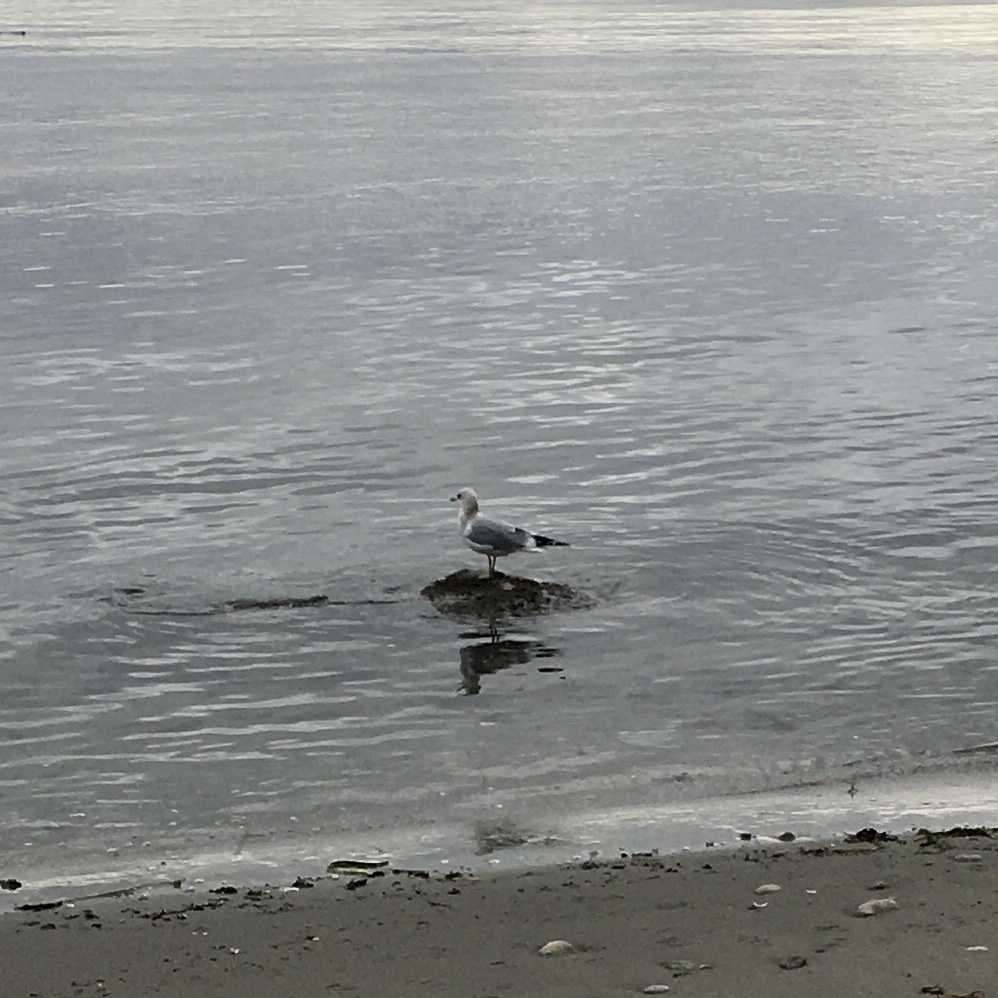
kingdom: Animalia
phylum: Chordata
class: Aves
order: Charadriiformes
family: Laridae
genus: Larus
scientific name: Larus brachyrhynchus
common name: Short-billed gull
